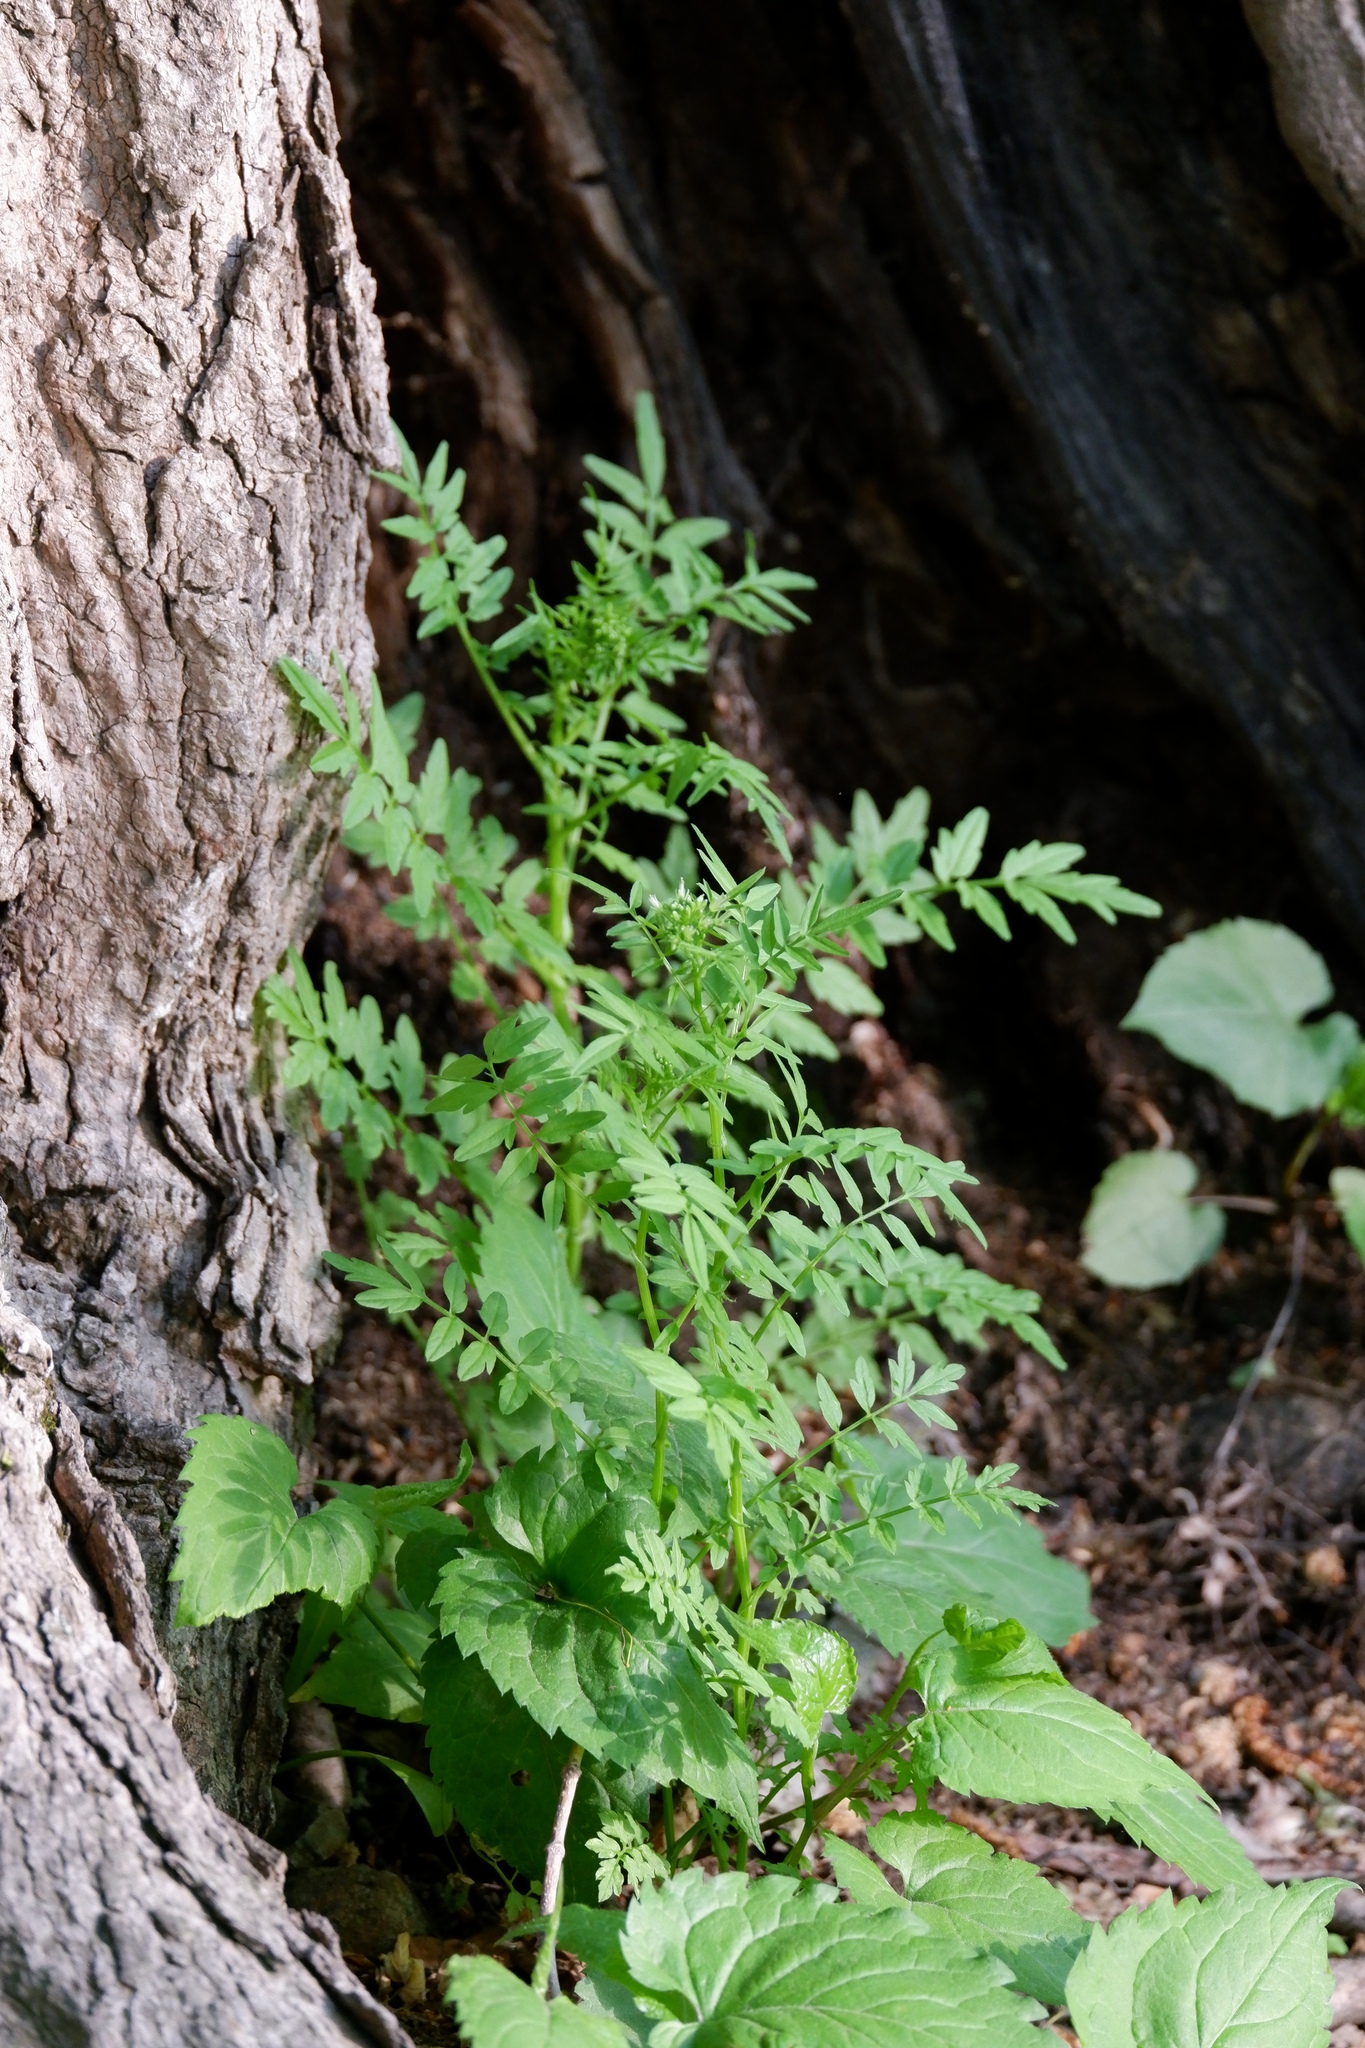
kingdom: Plantae
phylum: Tracheophyta
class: Magnoliopsida
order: Brassicales
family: Brassicaceae
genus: Cardamine
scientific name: Cardamine impatiens
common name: Narrow-leaved bitter-cress
